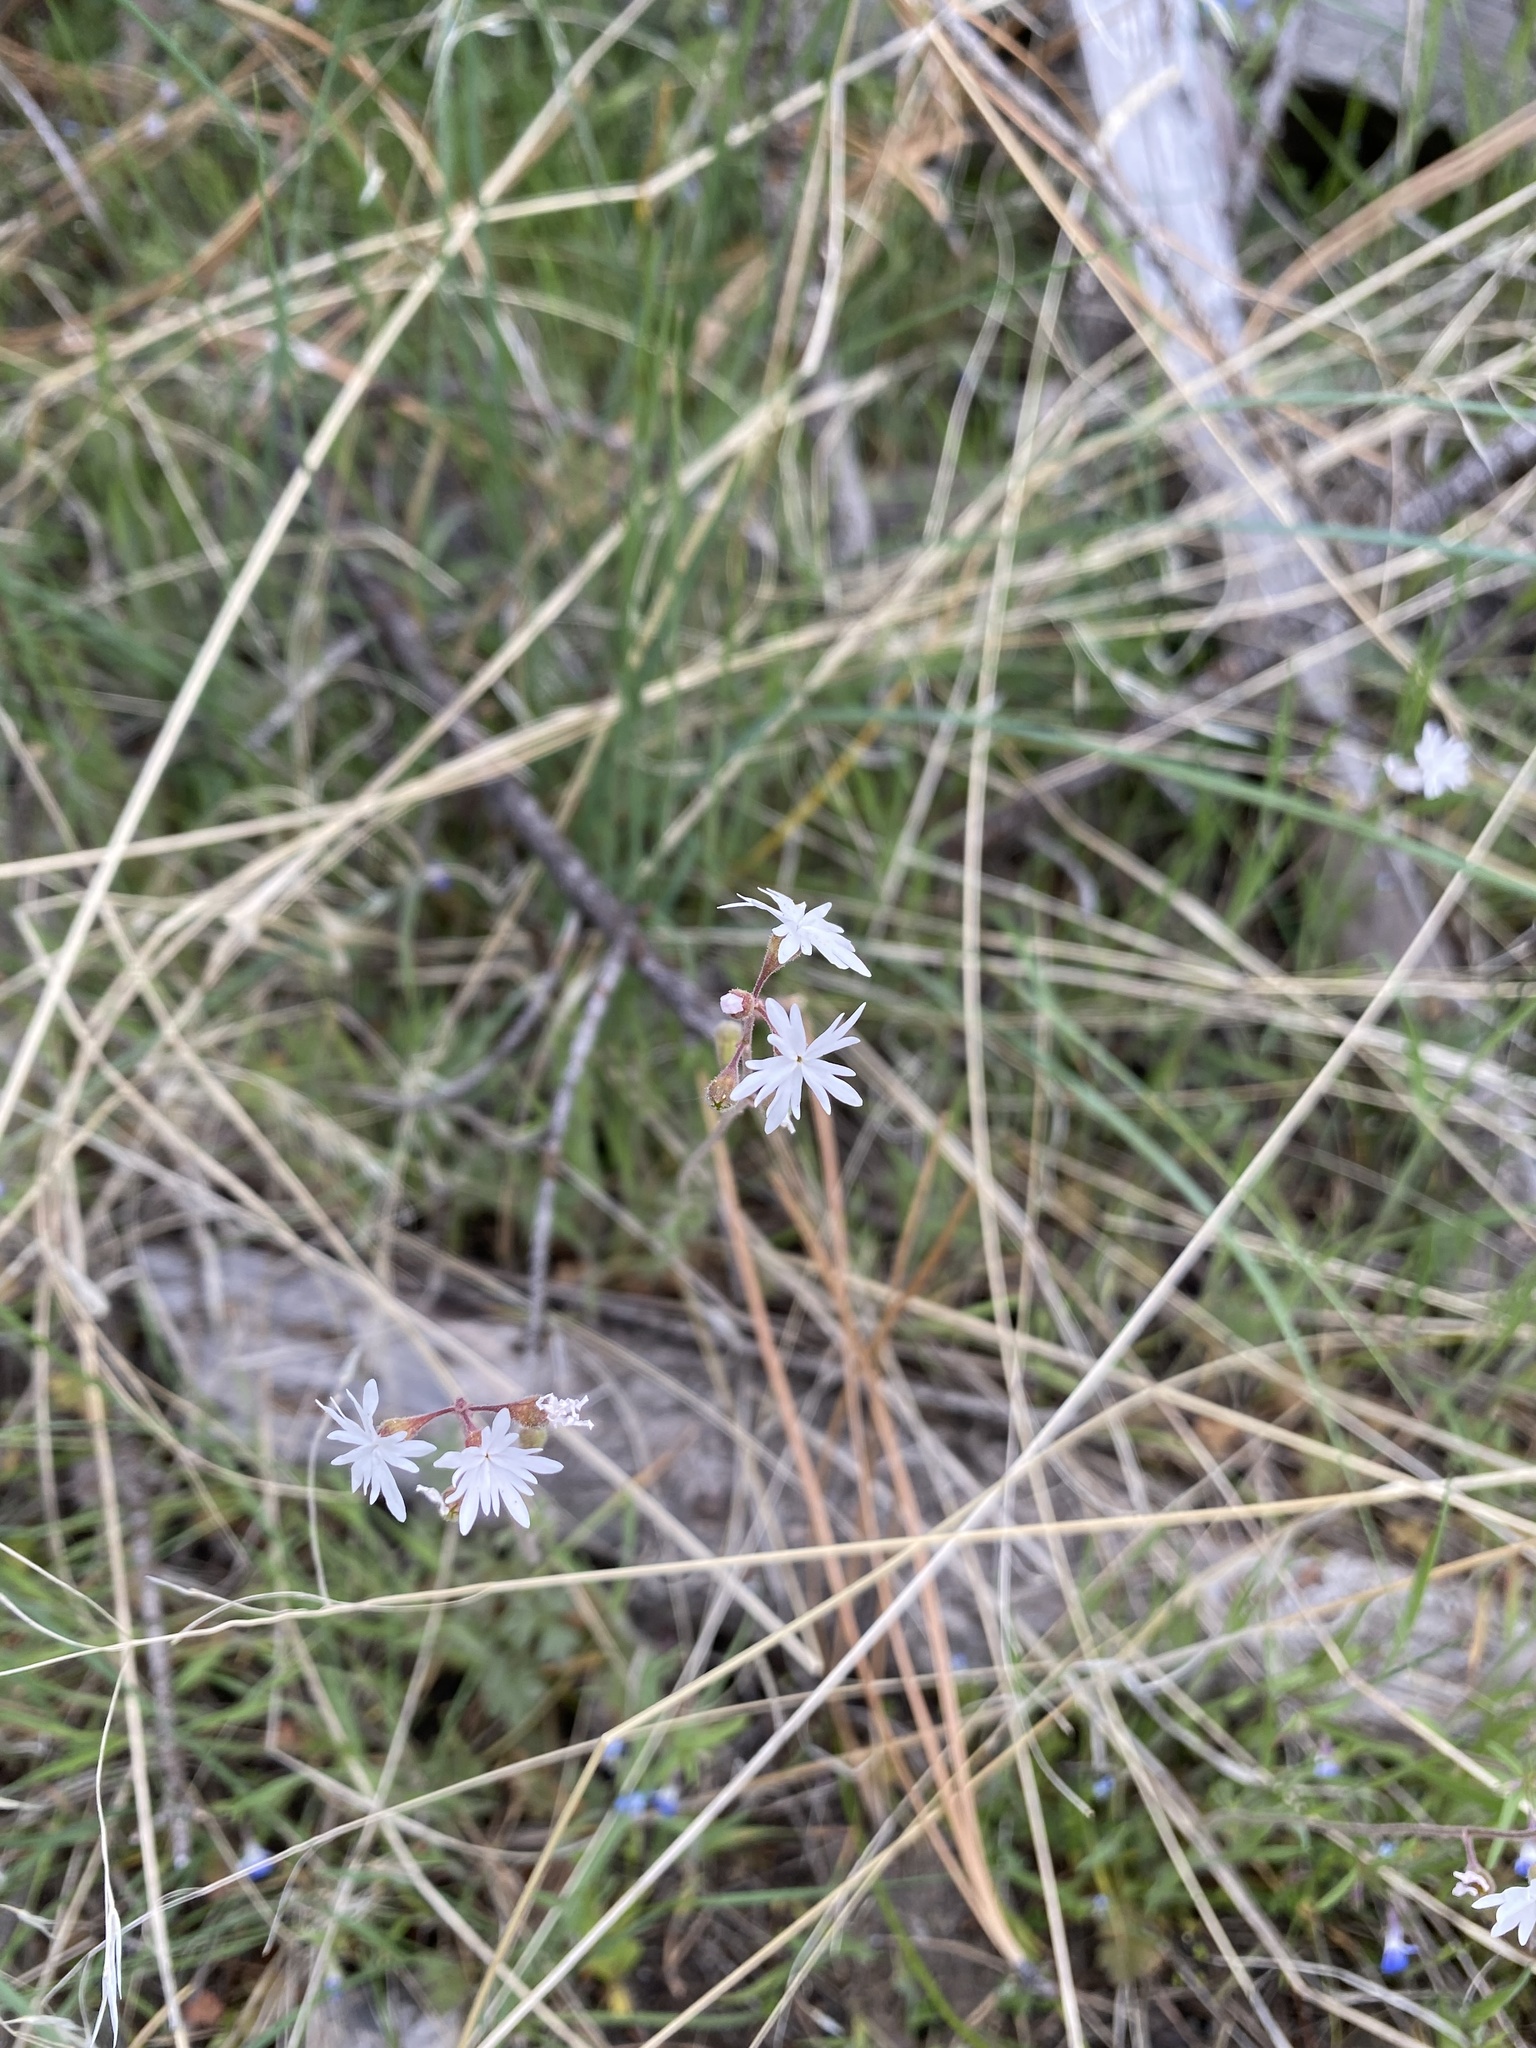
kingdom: Plantae
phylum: Tracheophyta
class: Magnoliopsida
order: Saxifragales
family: Saxifragaceae
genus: Lithophragma
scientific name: Lithophragma parviflorum
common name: Small-flowered fringe-cup
